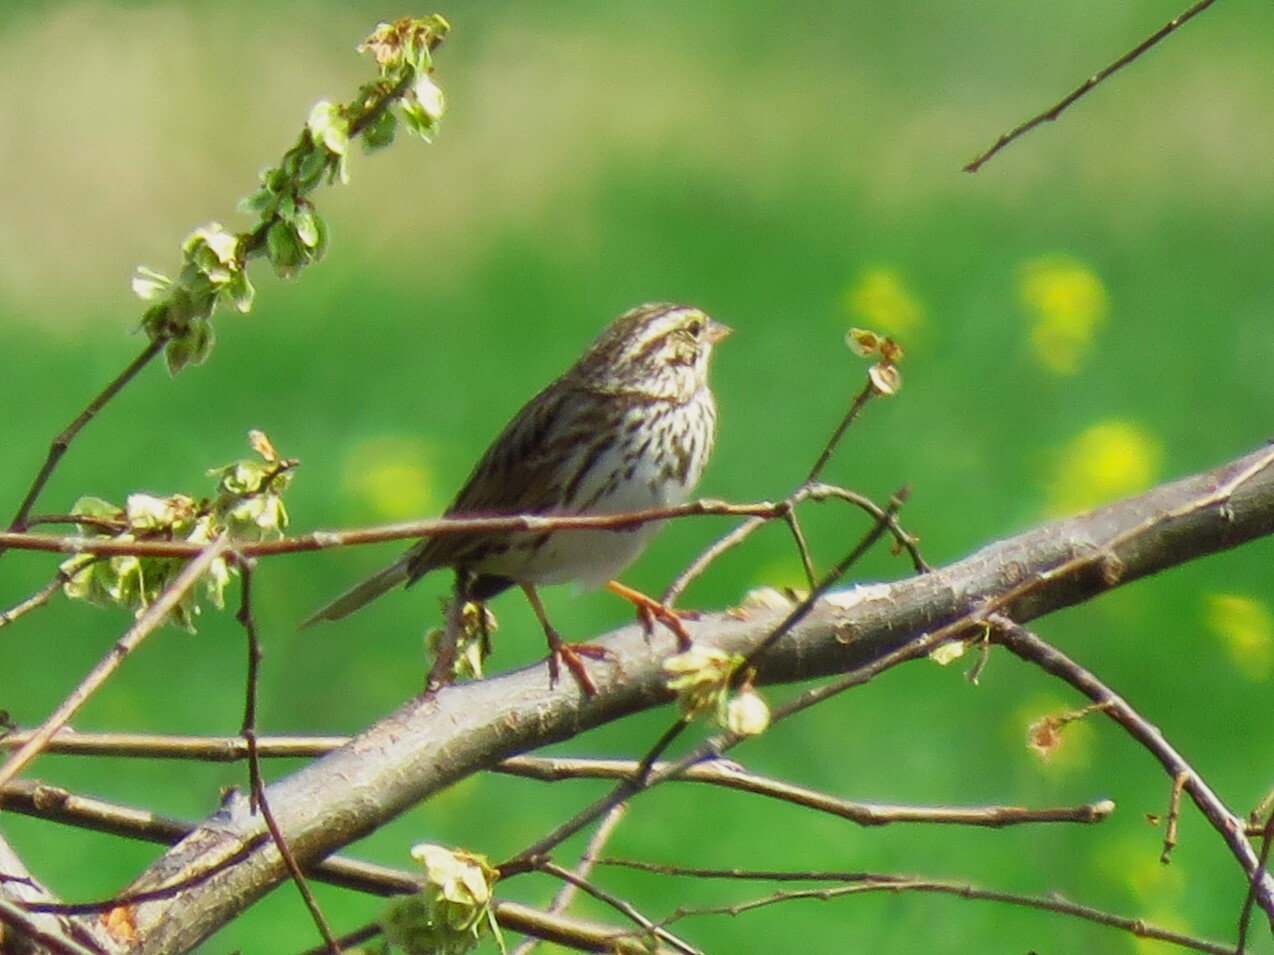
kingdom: Animalia
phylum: Chordata
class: Aves
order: Passeriformes
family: Passerellidae
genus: Passerculus
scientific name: Passerculus sandwichensis
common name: Savannah sparrow
